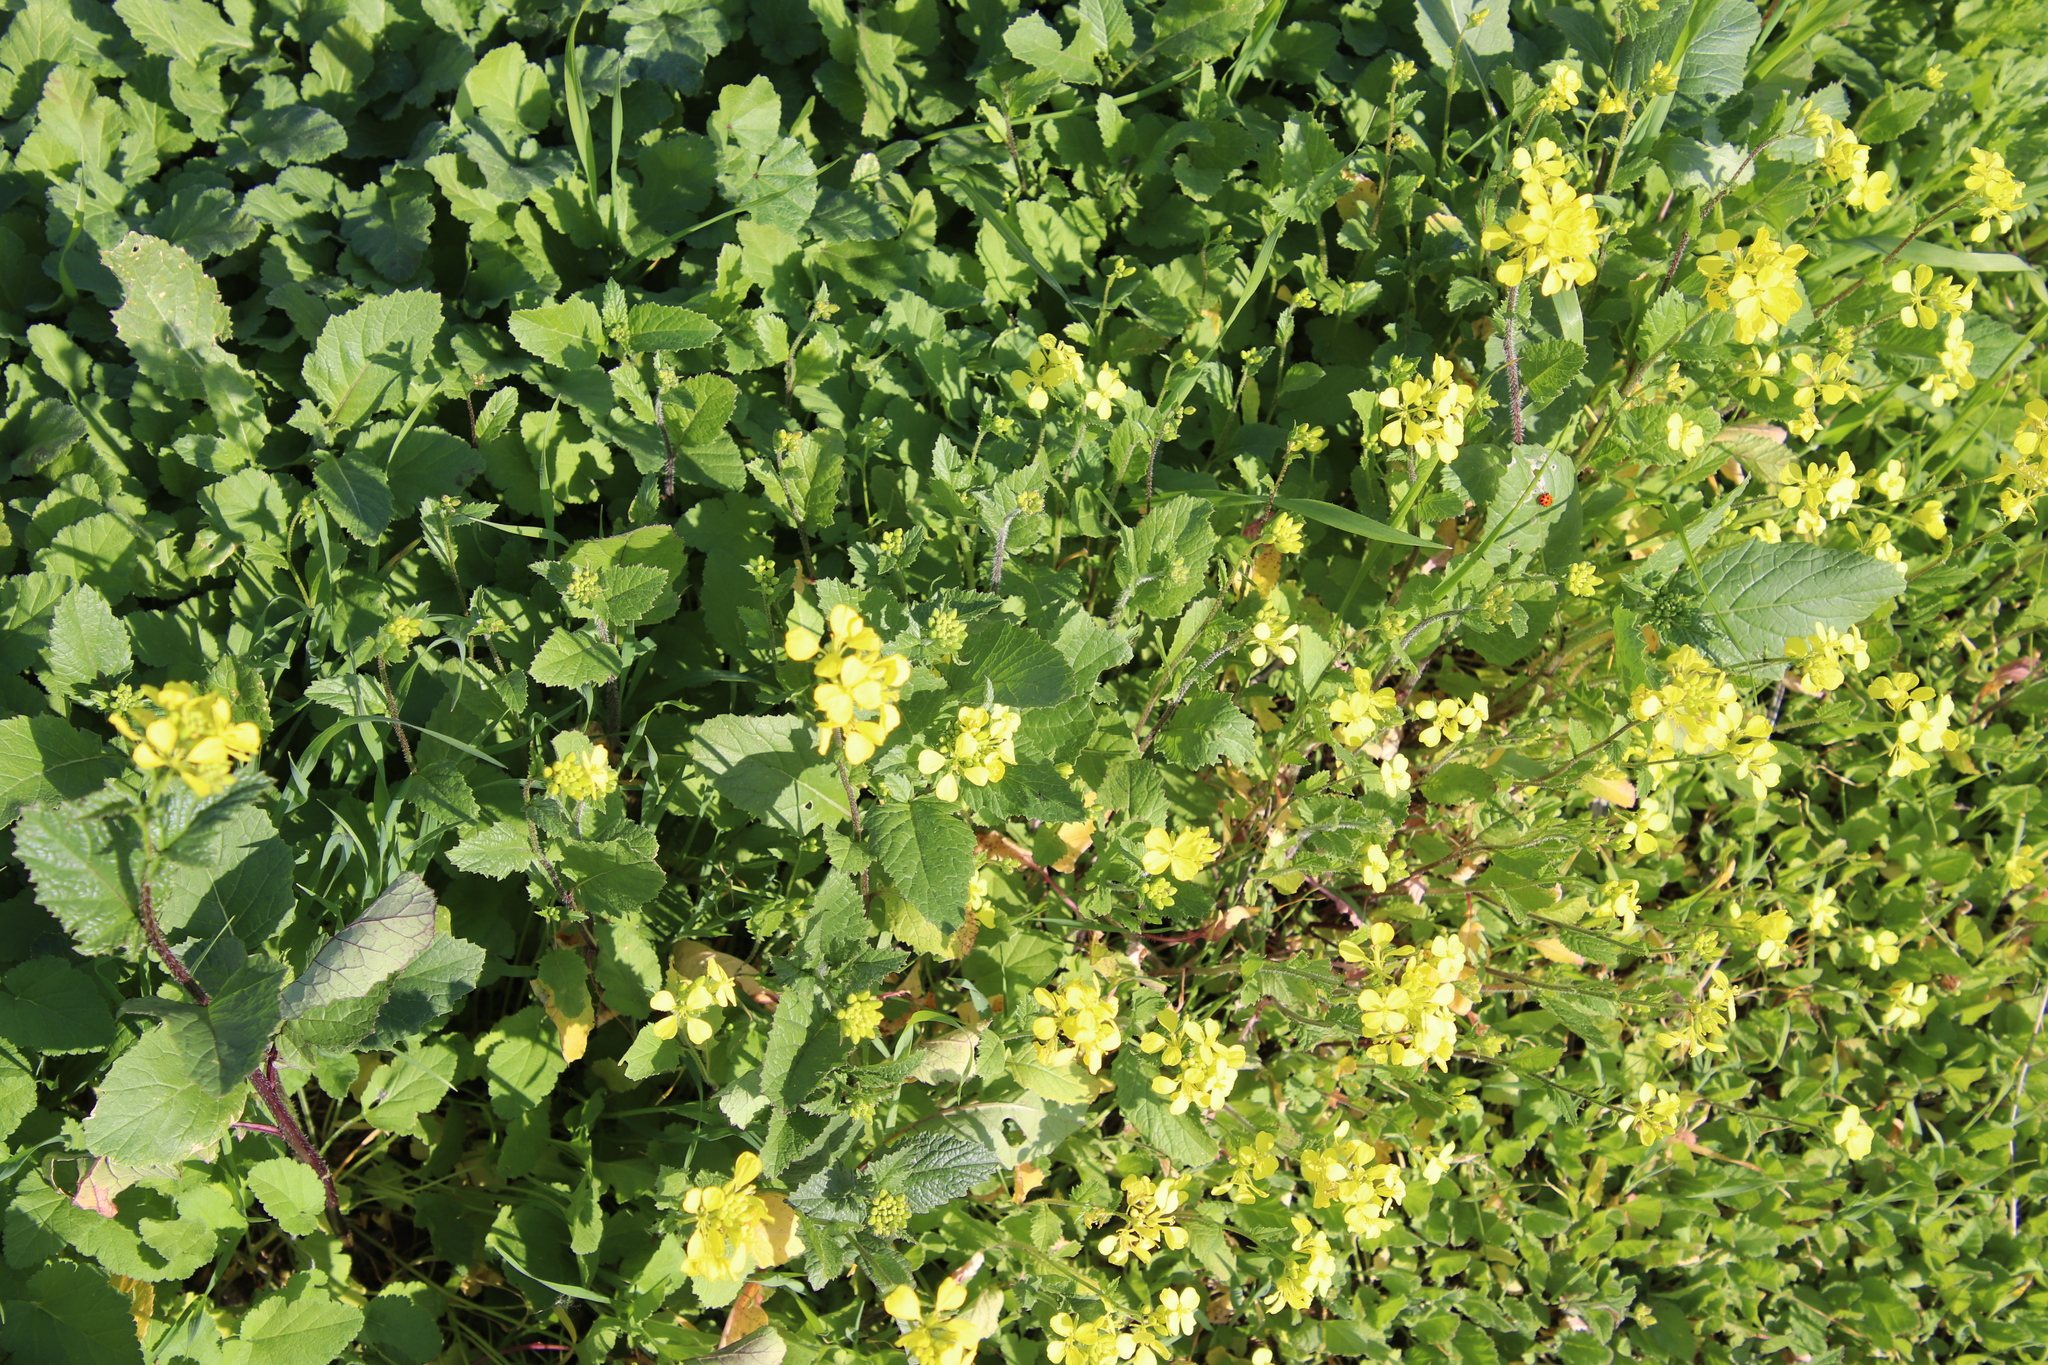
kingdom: Plantae
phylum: Tracheophyta
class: Magnoliopsida
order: Brassicales
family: Brassicaceae
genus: Sinapis
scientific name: Sinapis arvensis
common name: Charlock
